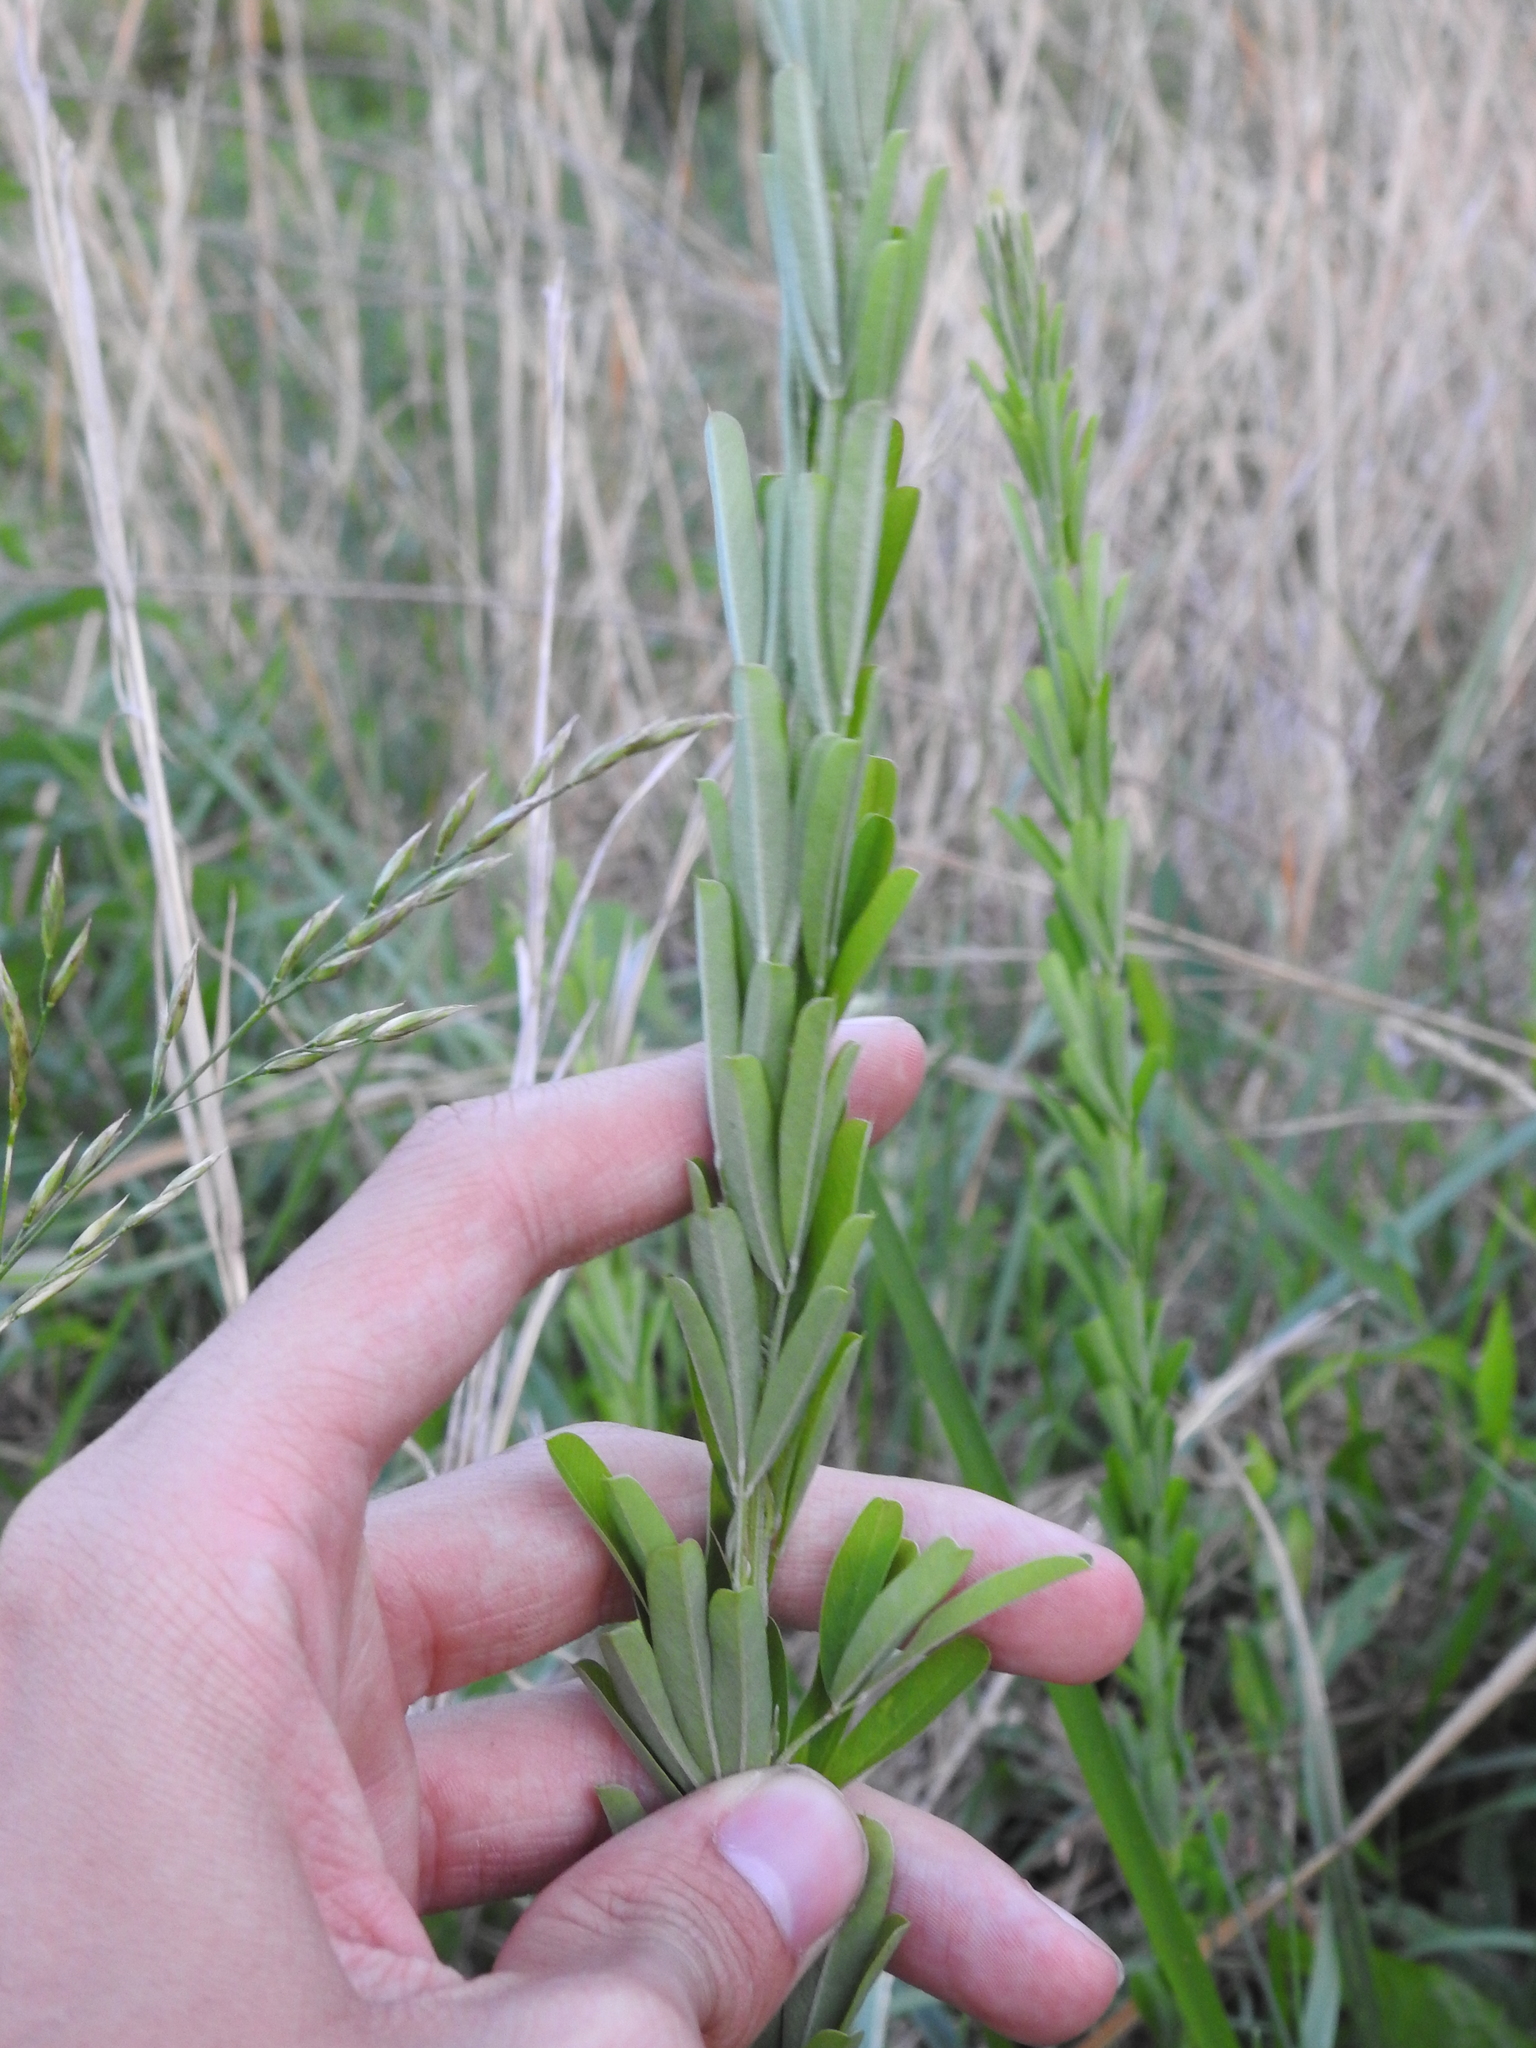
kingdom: Plantae
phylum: Tracheophyta
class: Magnoliopsida
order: Fabales
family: Fabaceae
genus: Lespedeza
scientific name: Lespedeza cuneata
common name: Chinese bush-clover
